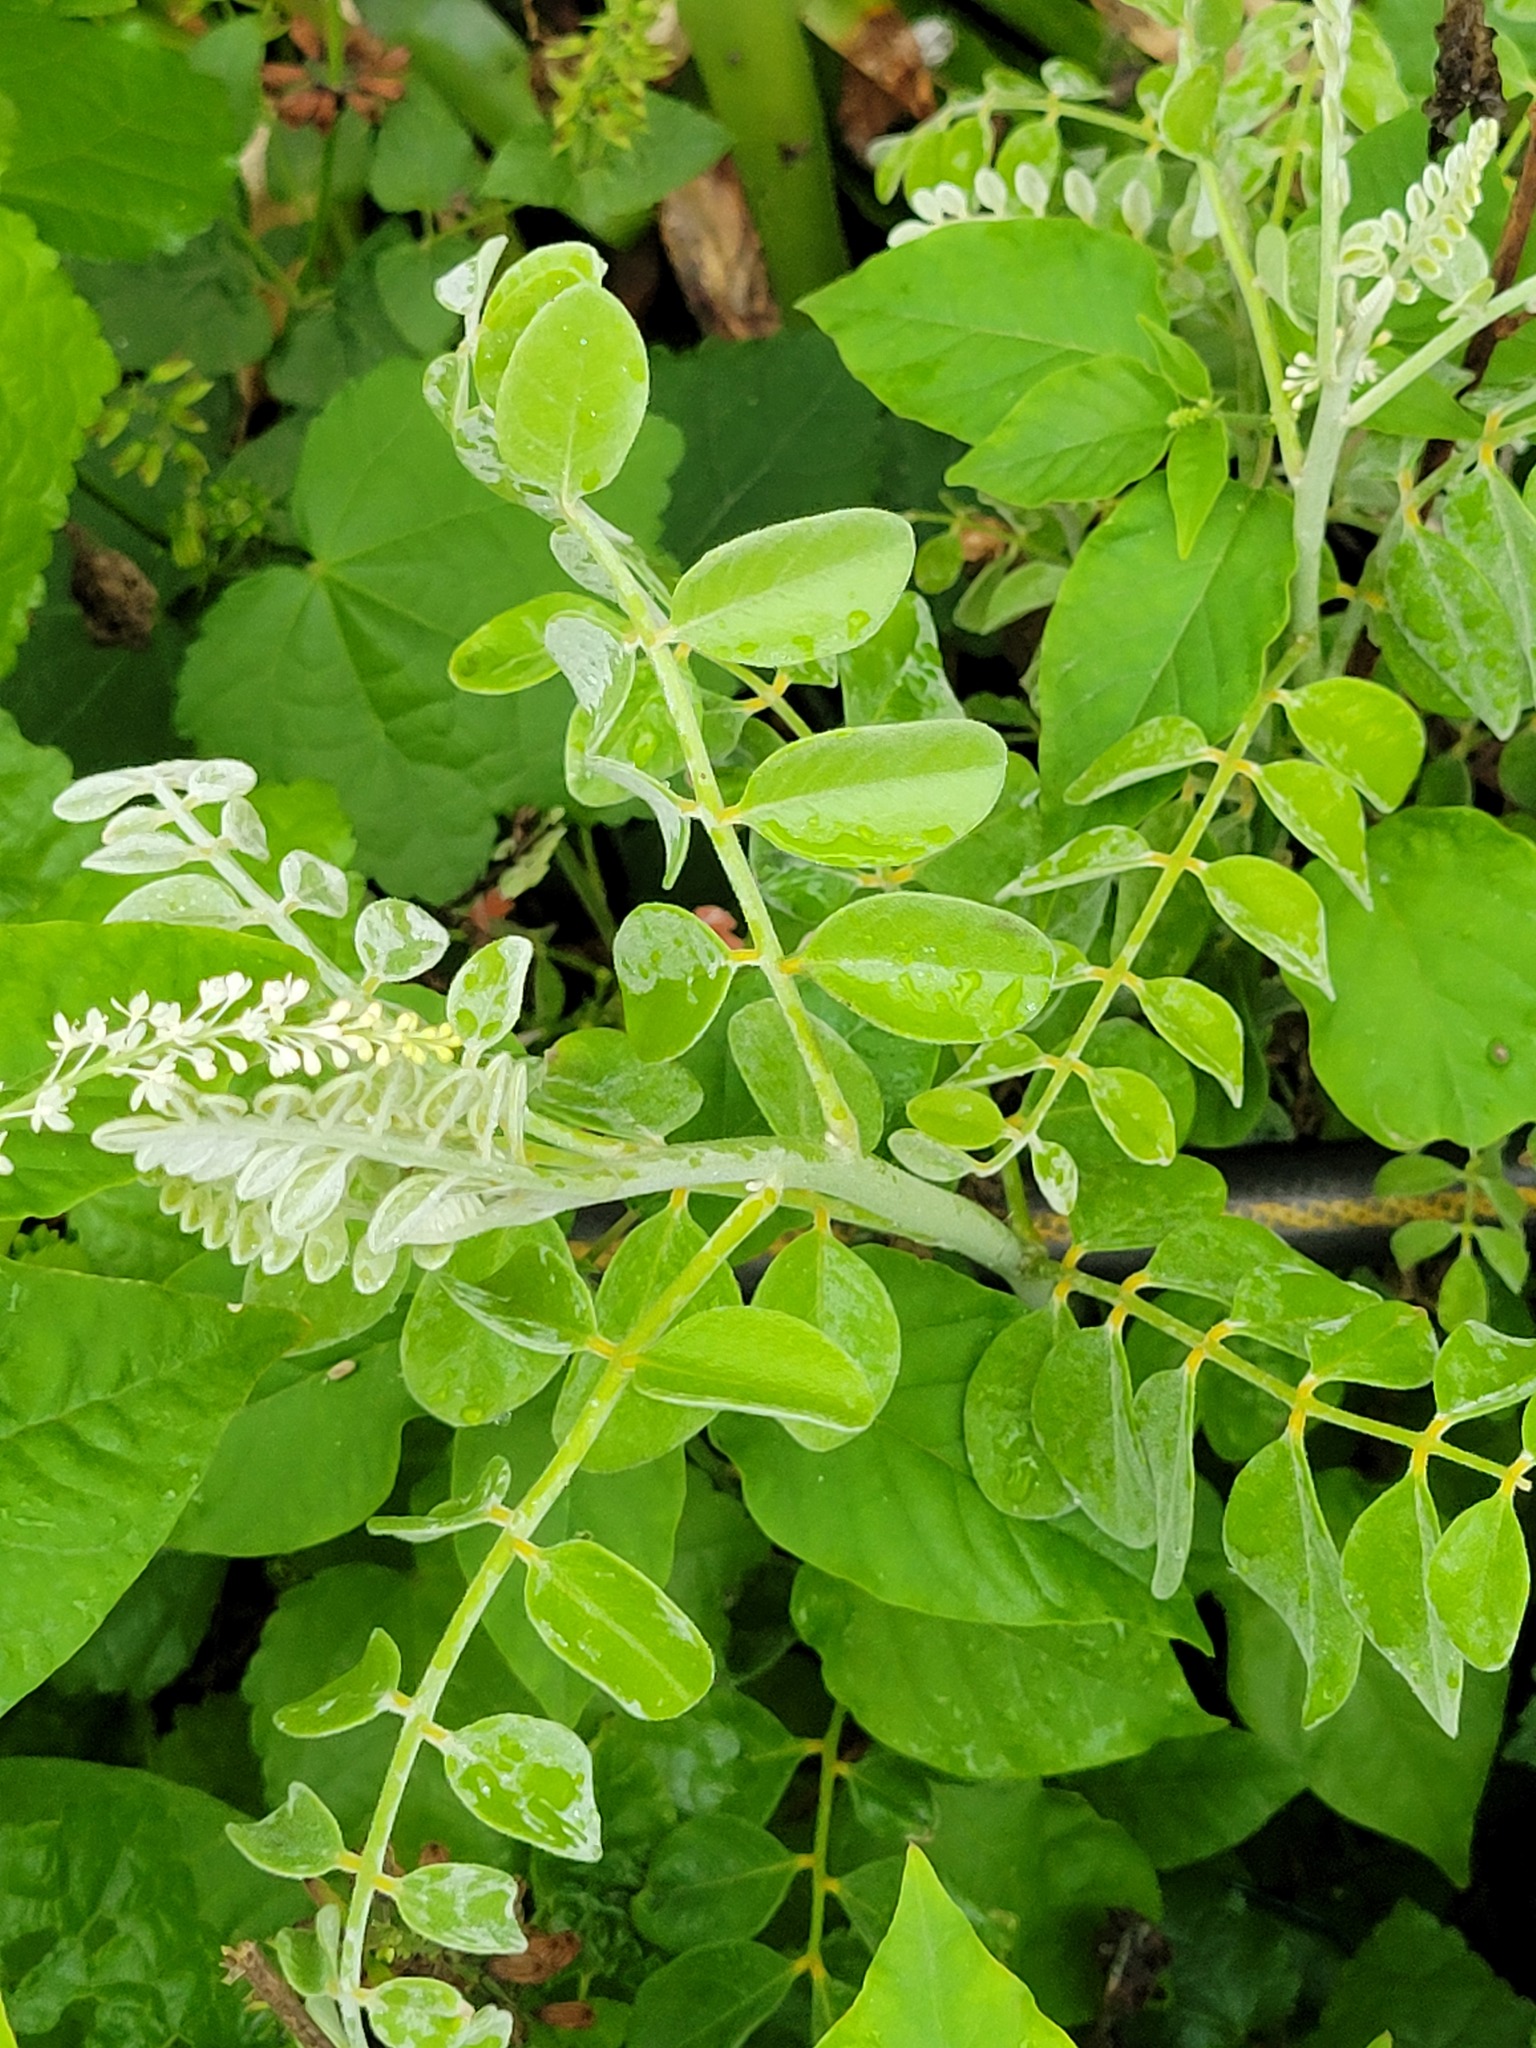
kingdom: Plantae
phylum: Tracheophyta
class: Magnoliopsida
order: Fabales
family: Fabaceae
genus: Sophora
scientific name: Sophora tomentosa
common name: Yellow necklacepod
